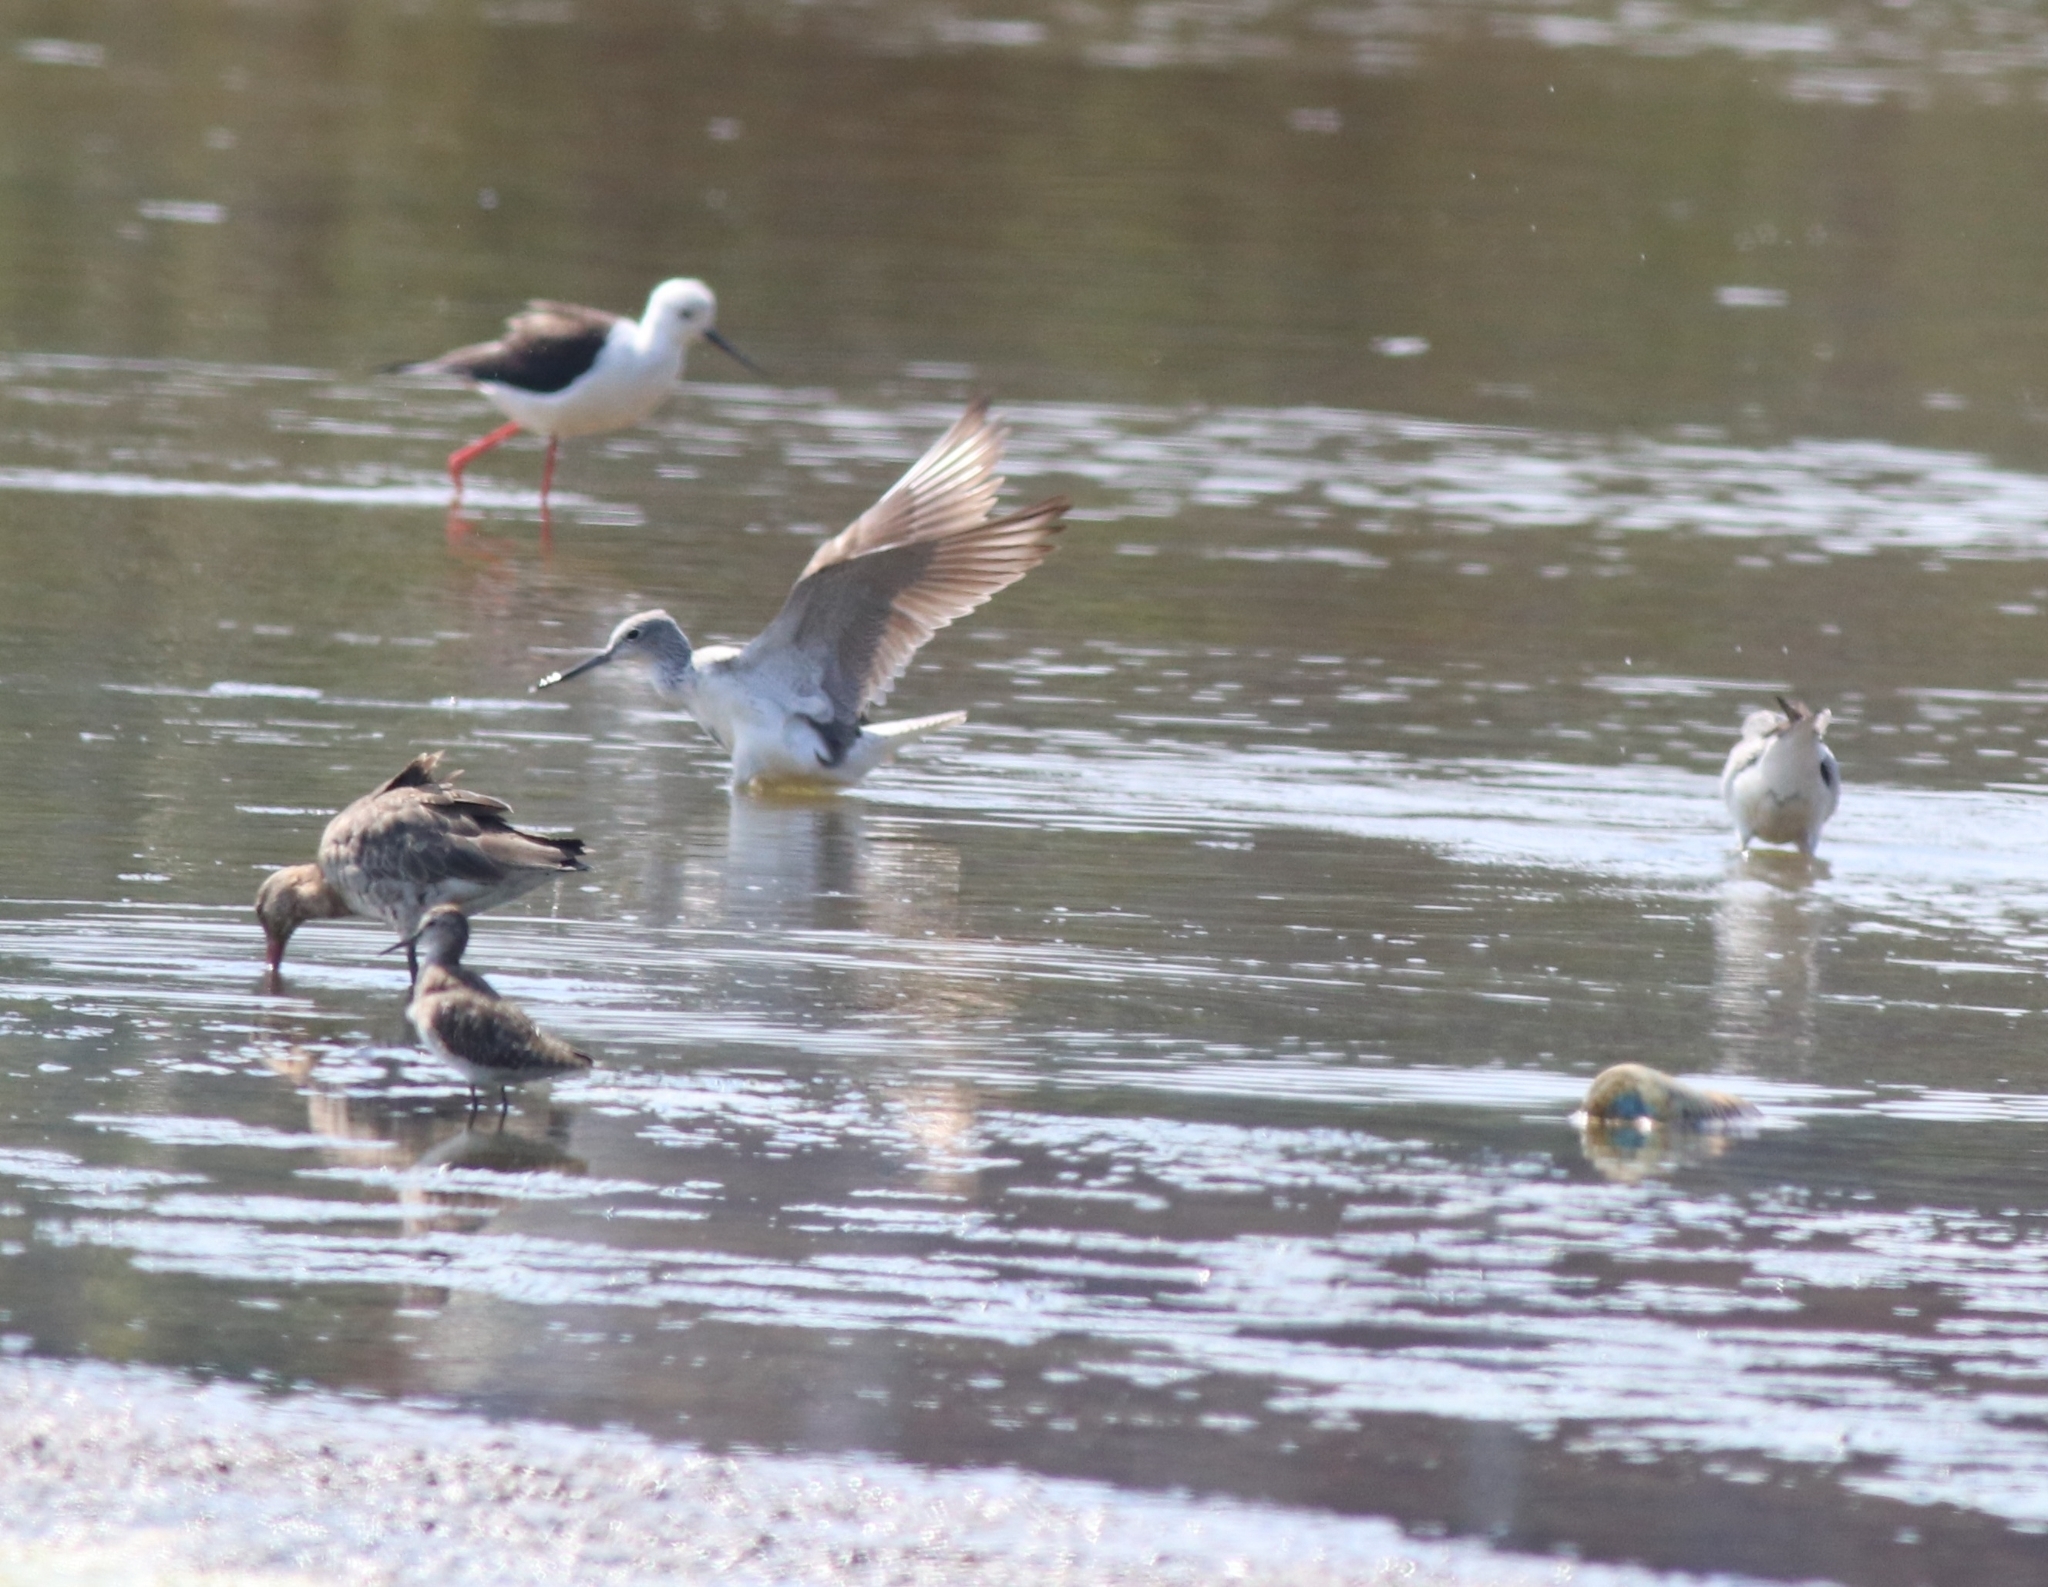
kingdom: Animalia
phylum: Chordata
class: Aves
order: Charadriiformes
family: Scolopacidae
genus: Tringa
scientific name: Tringa stagnatilis
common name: Marsh sandpiper
